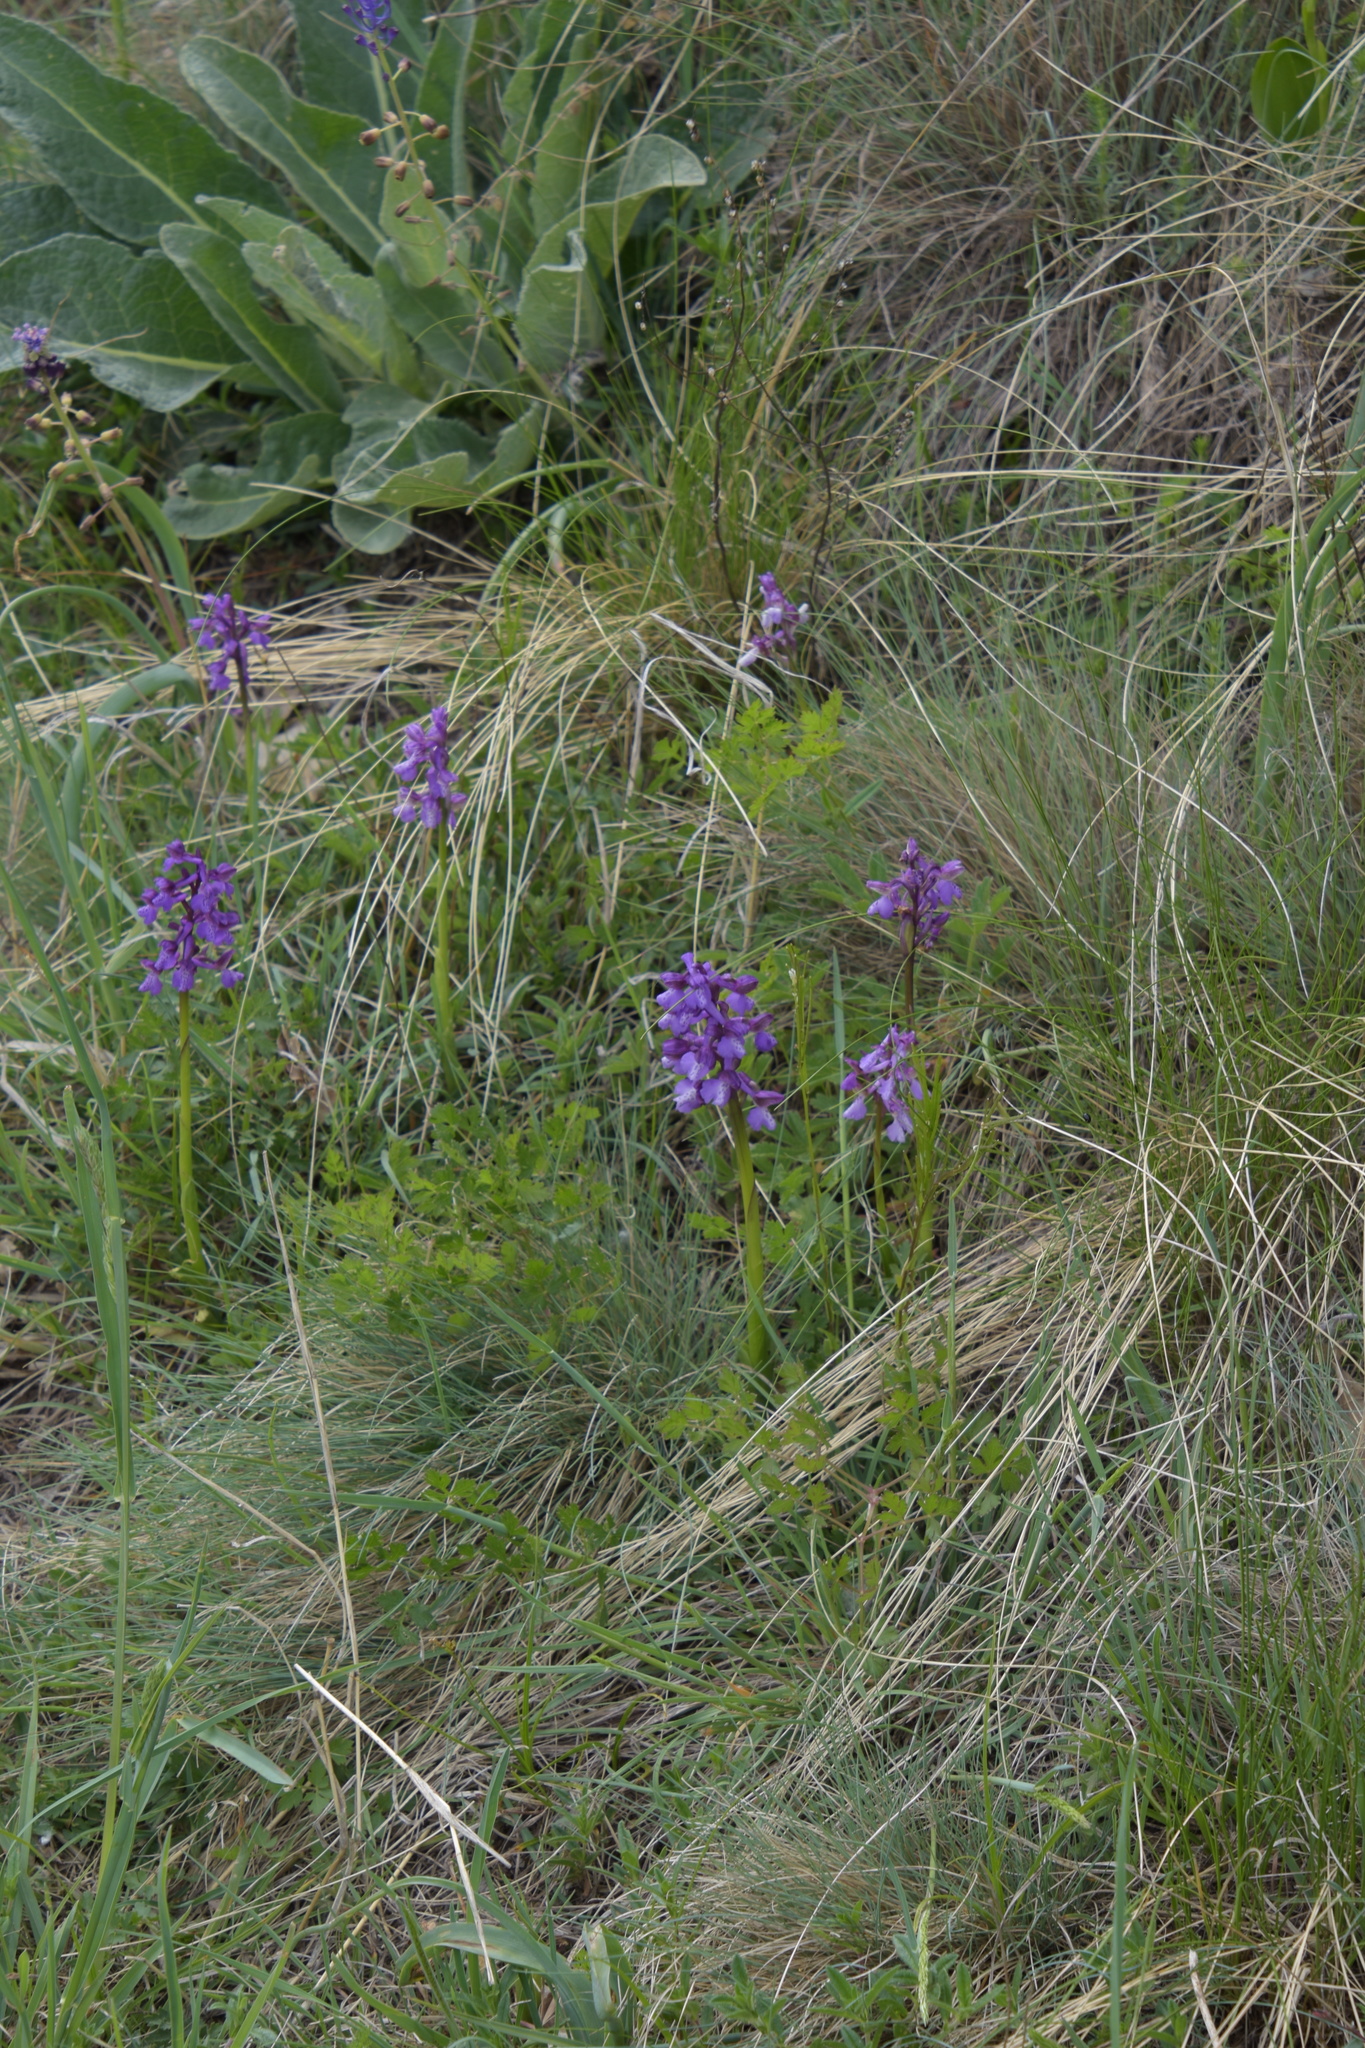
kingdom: Plantae
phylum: Tracheophyta
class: Liliopsida
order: Asparagales
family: Orchidaceae
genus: Anacamptis
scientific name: Anacamptis morio
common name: Green-winged orchid
